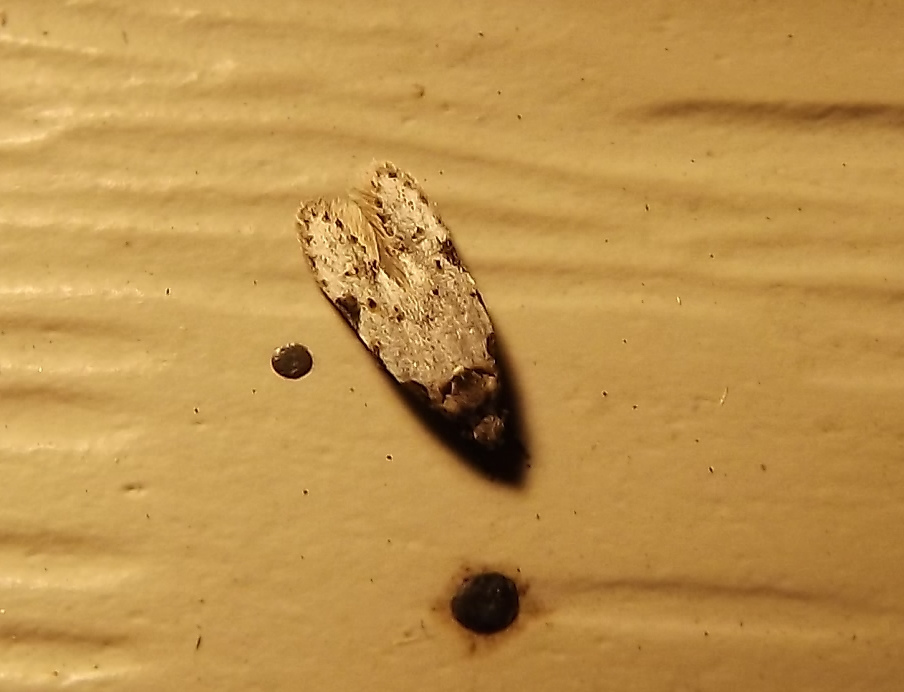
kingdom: Animalia
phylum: Arthropoda
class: Insecta
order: Lepidoptera
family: Autostichidae
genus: Taygete
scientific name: Taygete attributella
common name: Triangle-marked twirler moth
